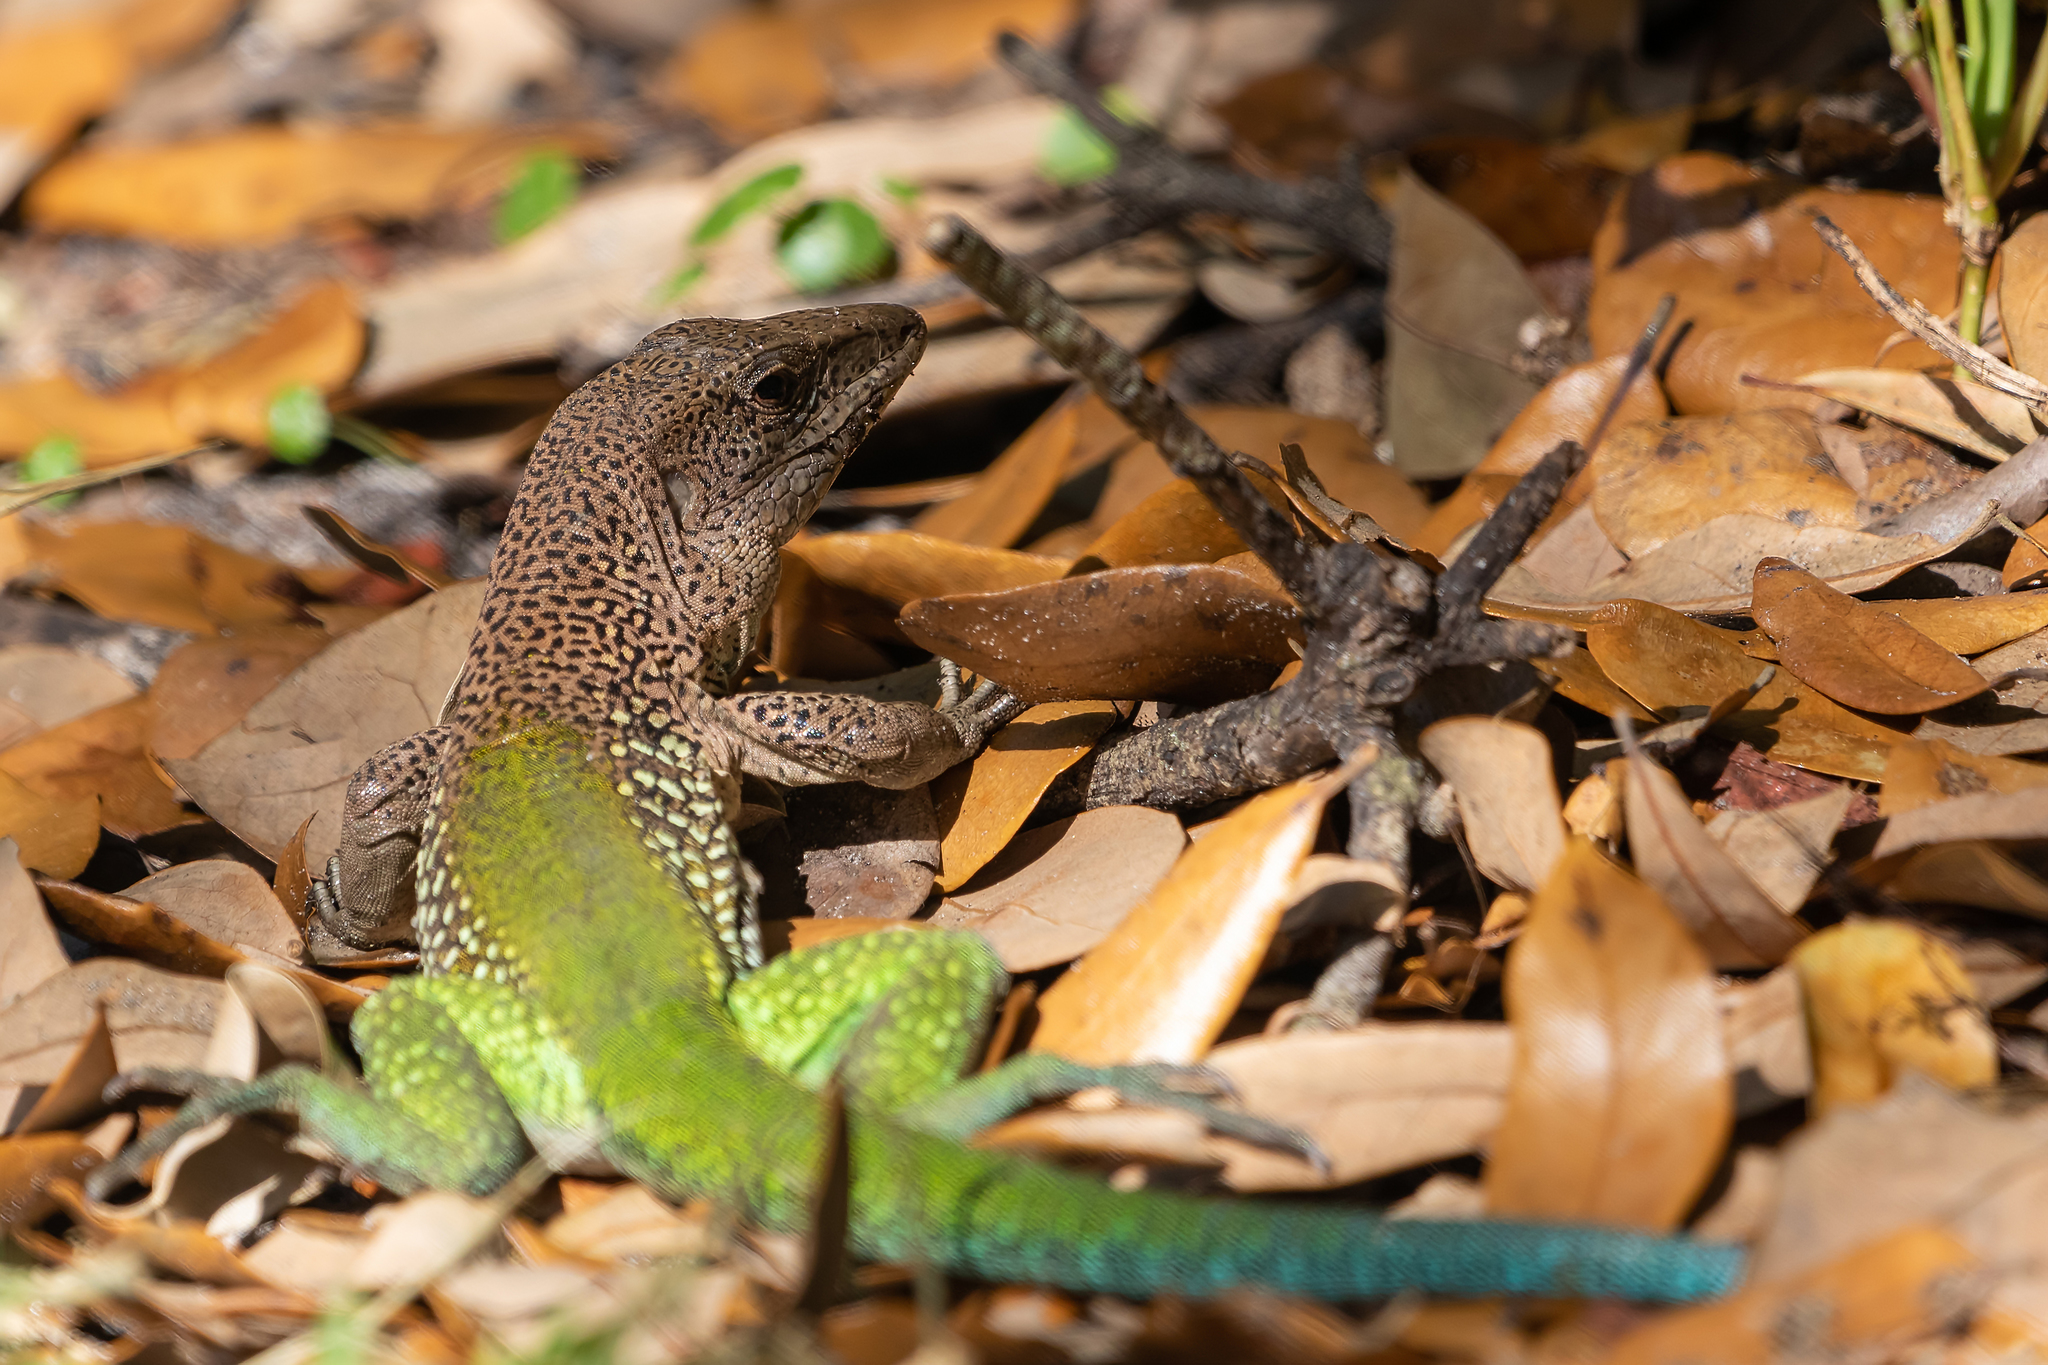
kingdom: Animalia
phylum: Chordata
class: Squamata
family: Teiidae
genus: Ameiva
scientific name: Ameiva ameiva
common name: Giant ameiva
